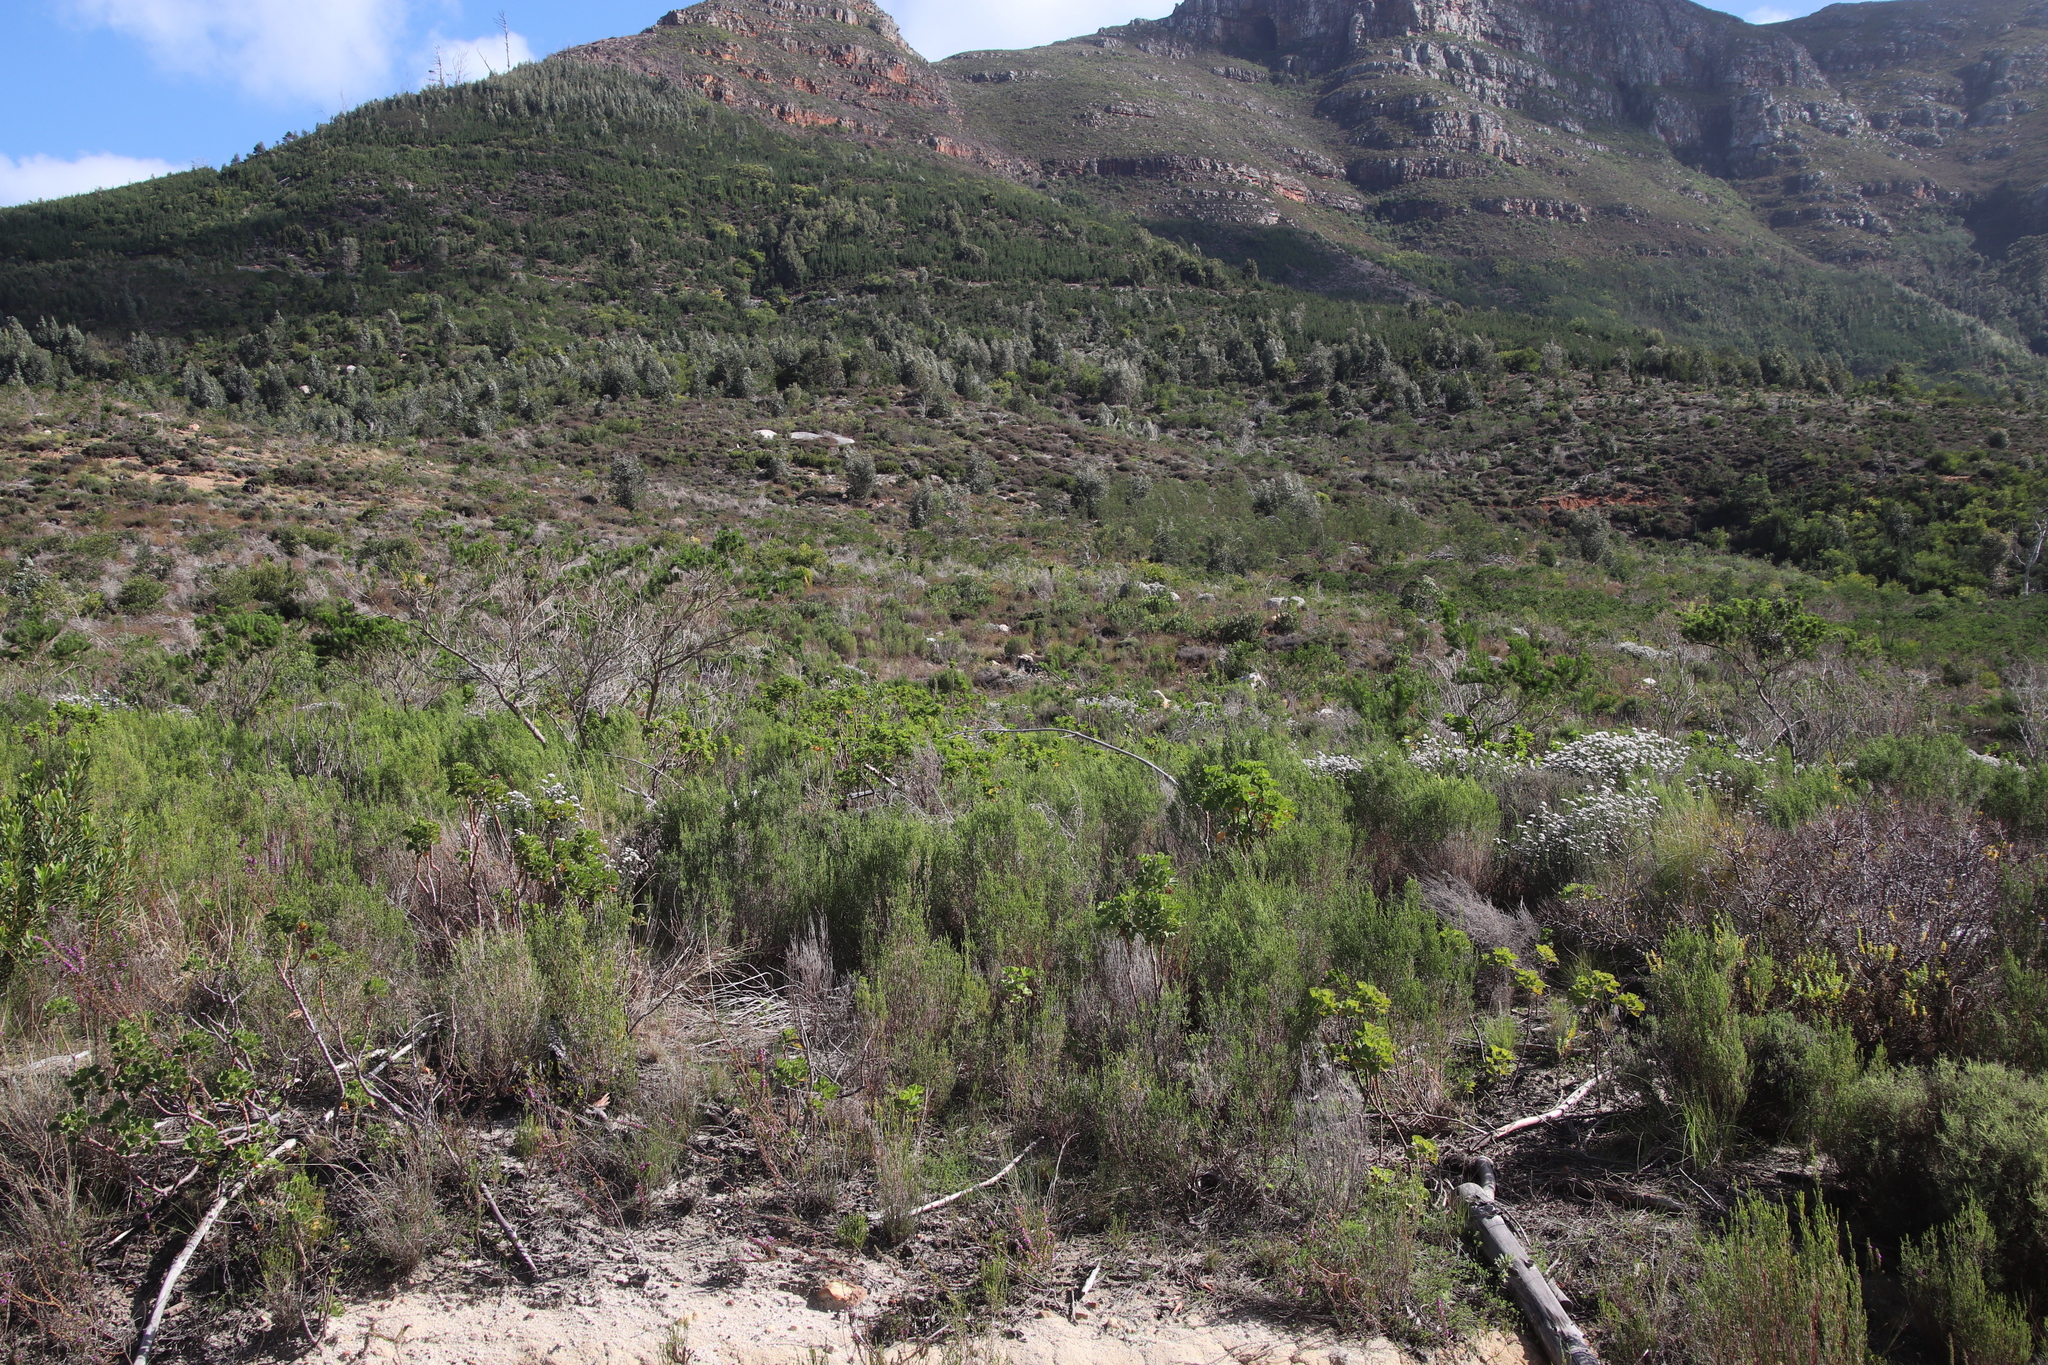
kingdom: Plantae
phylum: Tracheophyta
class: Magnoliopsida
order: Malvales
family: Thymelaeaceae
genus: Passerina
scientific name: Passerina corymbosa
